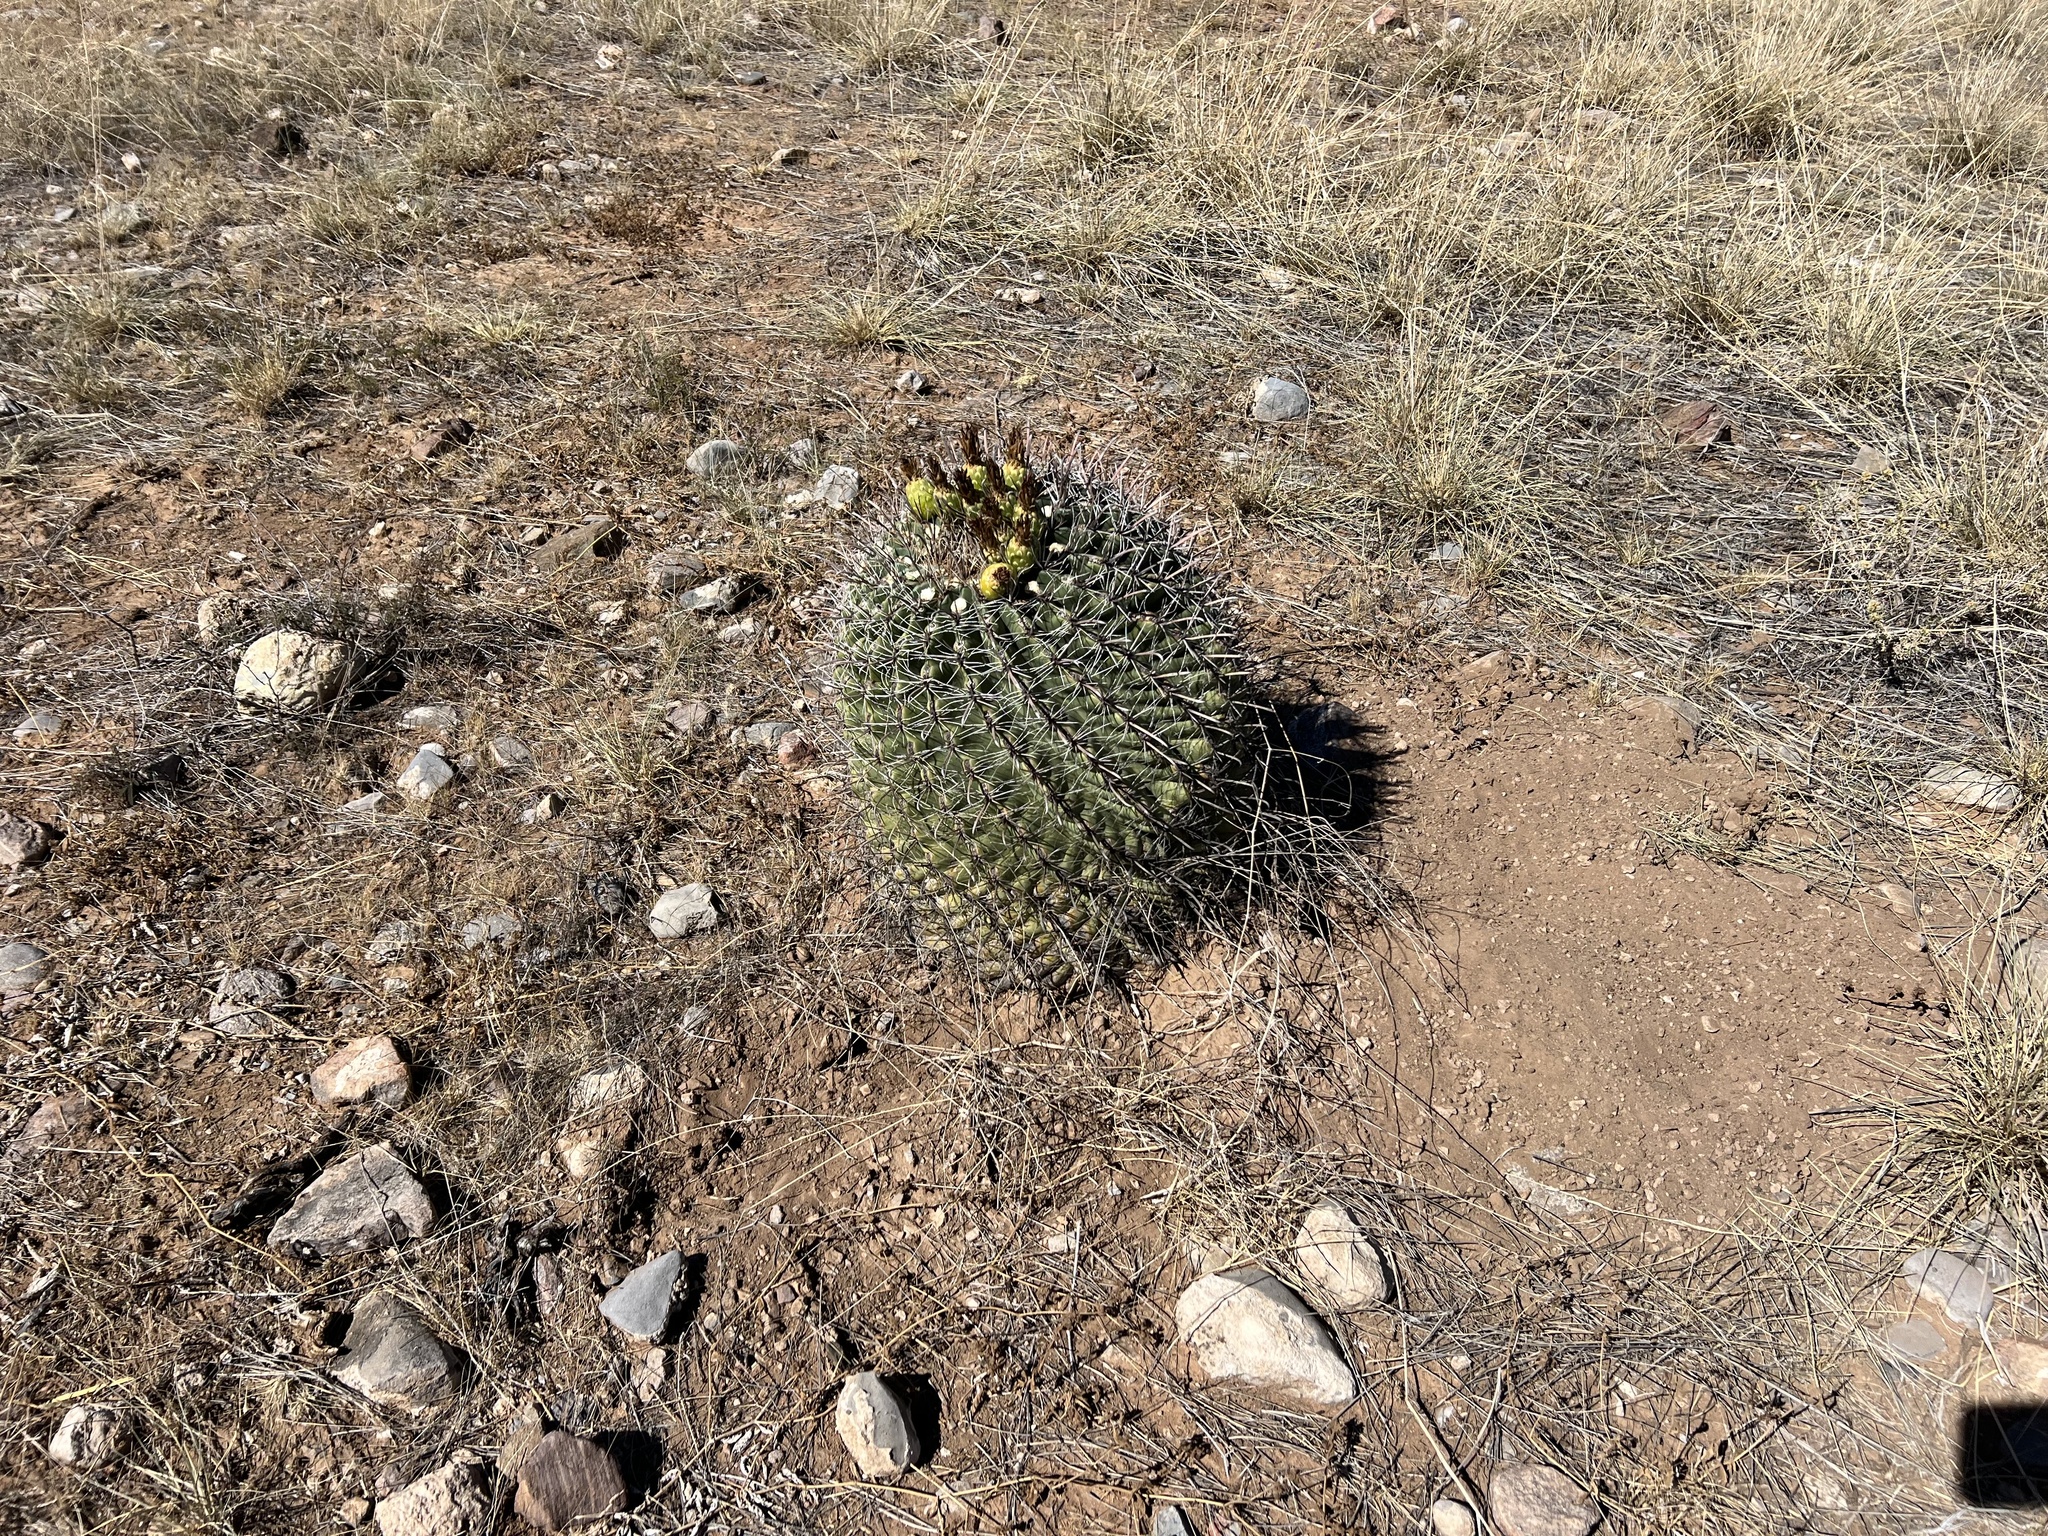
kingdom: Plantae
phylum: Tracheophyta
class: Magnoliopsida
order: Caryophyllales
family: Cactaceae
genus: Ferocactus
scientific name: Ferocactus wislizeni
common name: Candy barrel cactus
